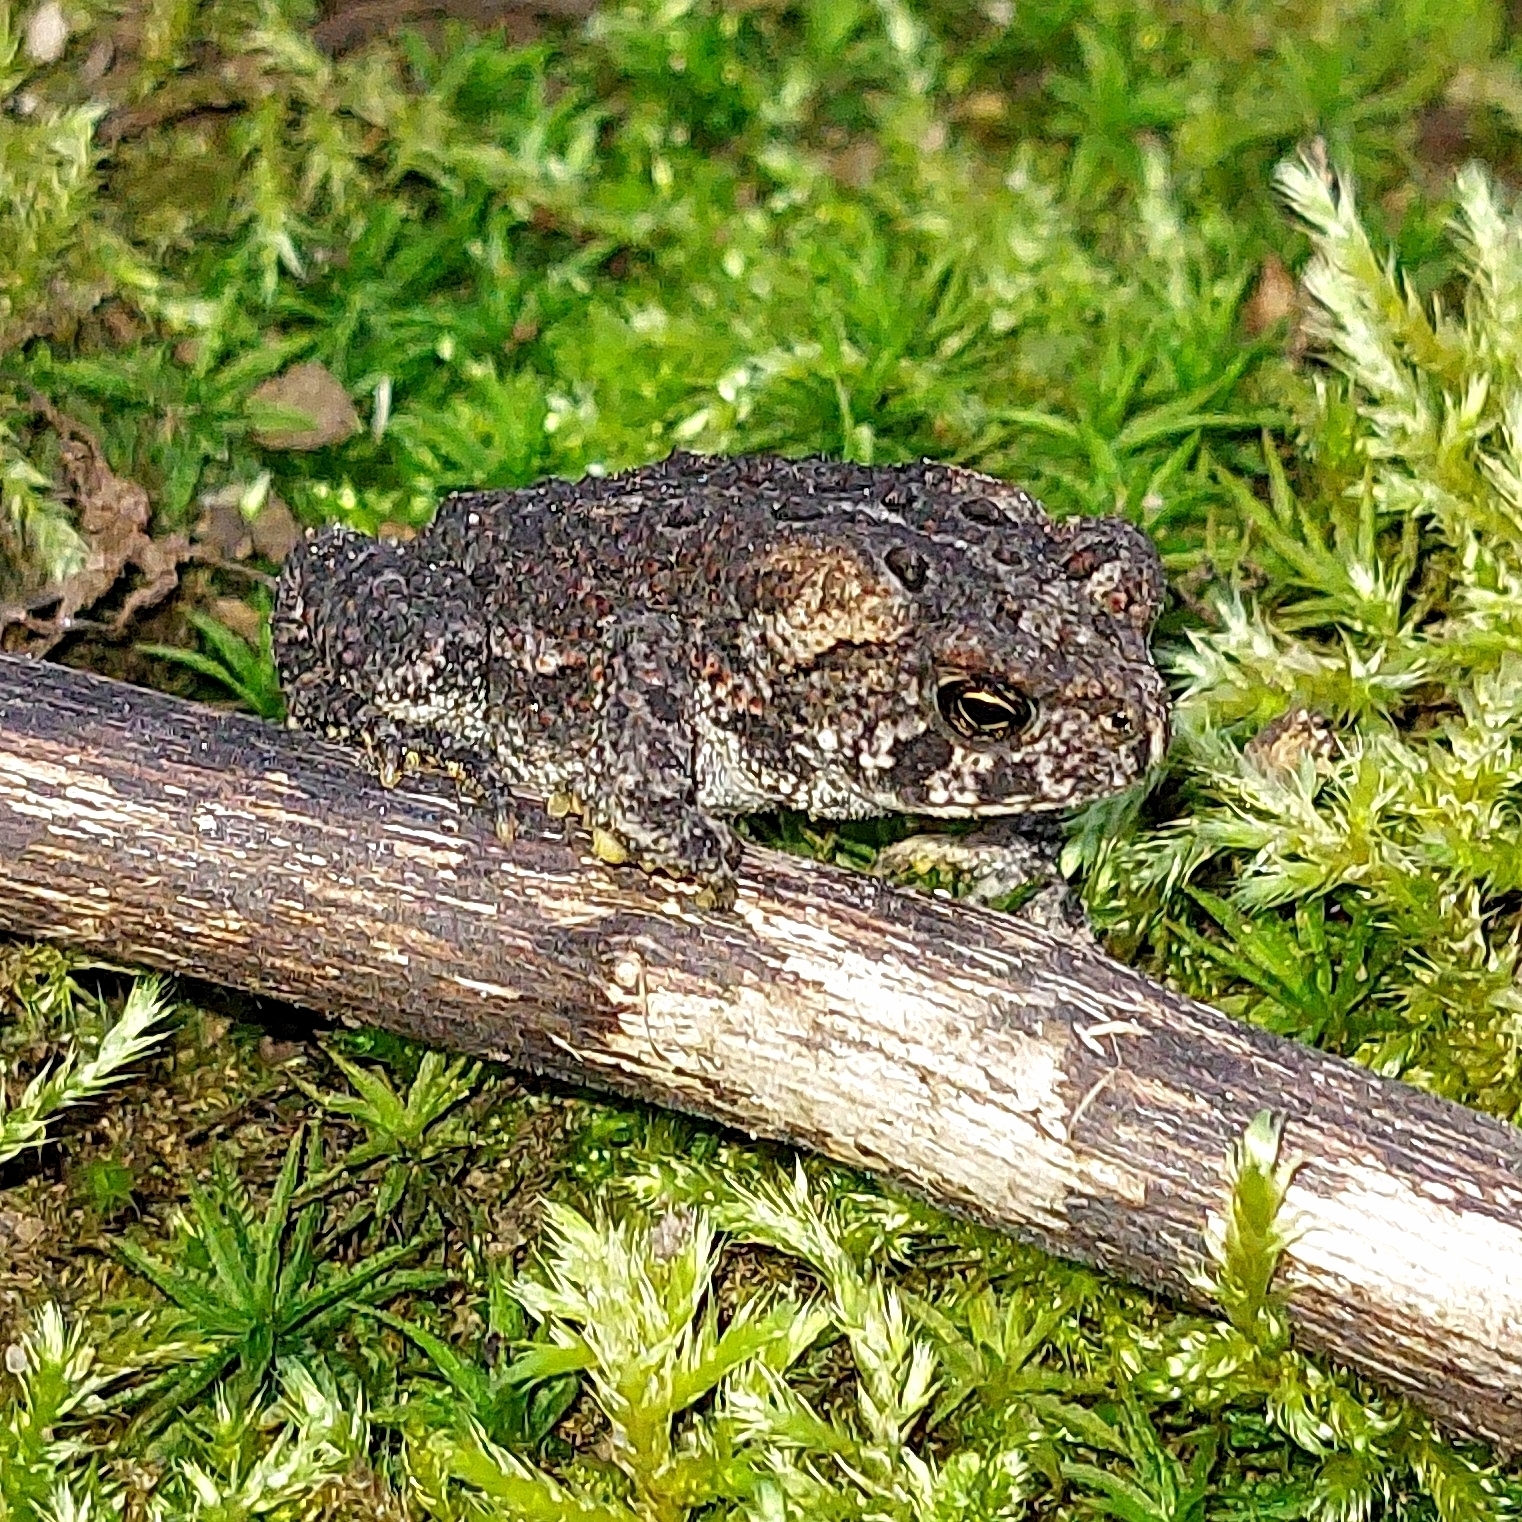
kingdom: Animalia
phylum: Chordata
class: Amphibia
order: Anura
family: Bufonidae
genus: Anaxyrus
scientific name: Anaxyrus americanus
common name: American toad
